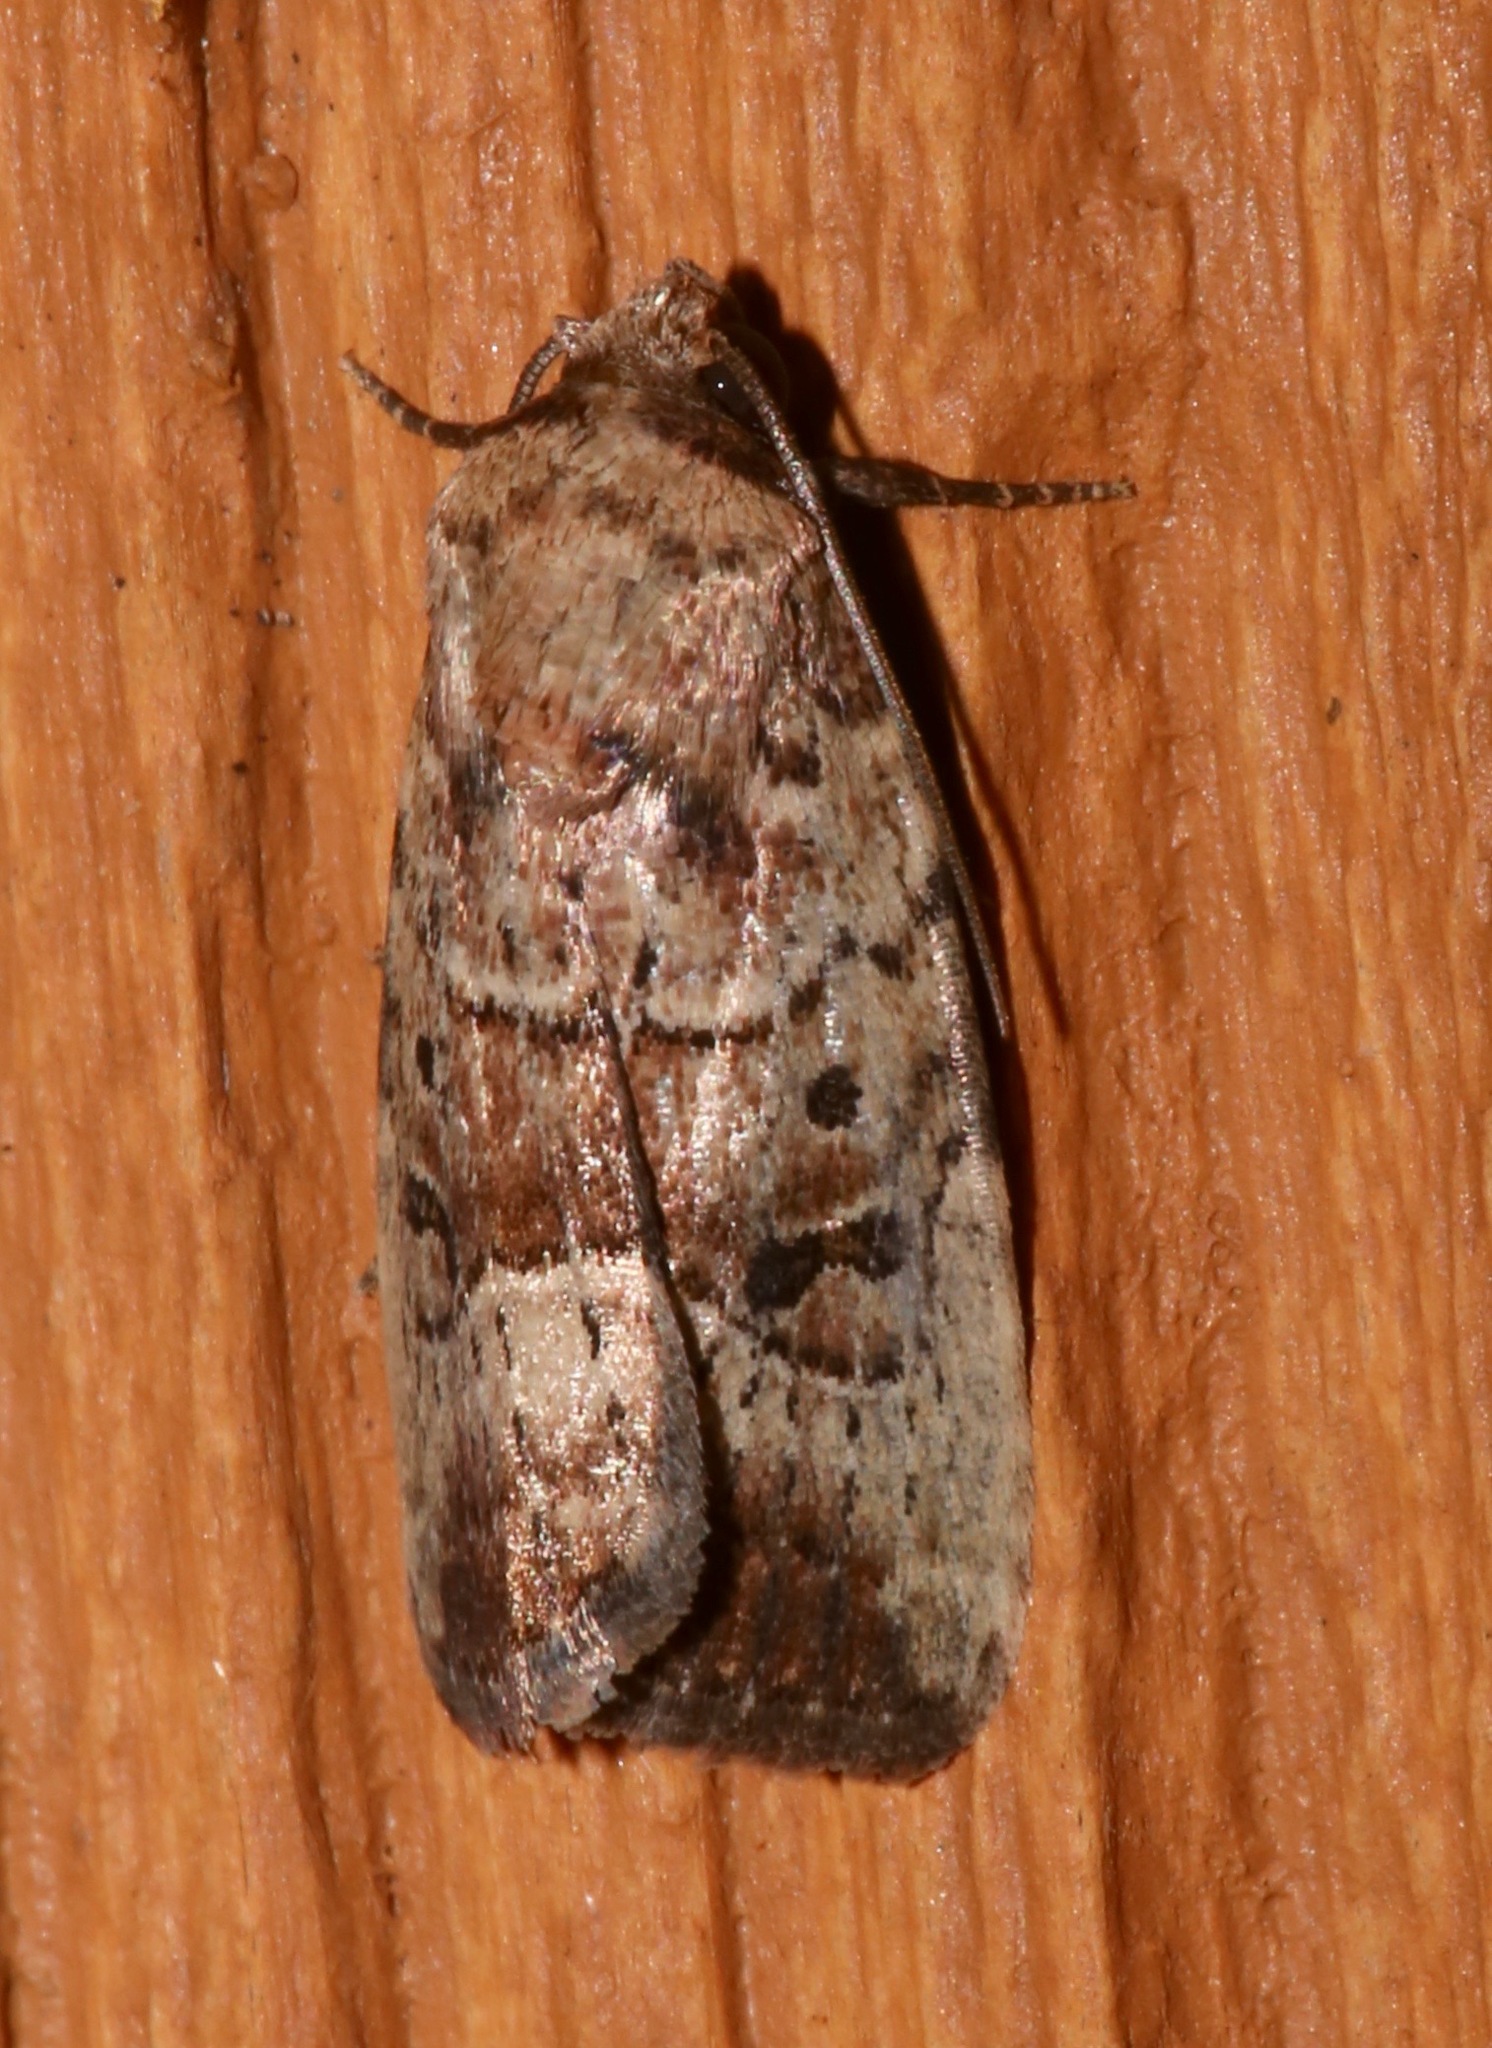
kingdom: Animalia
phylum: Arthropoda
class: Insecta
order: Lepidoptera
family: Noctuidae
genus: Elaphria
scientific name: Elaphria fuscimacula
